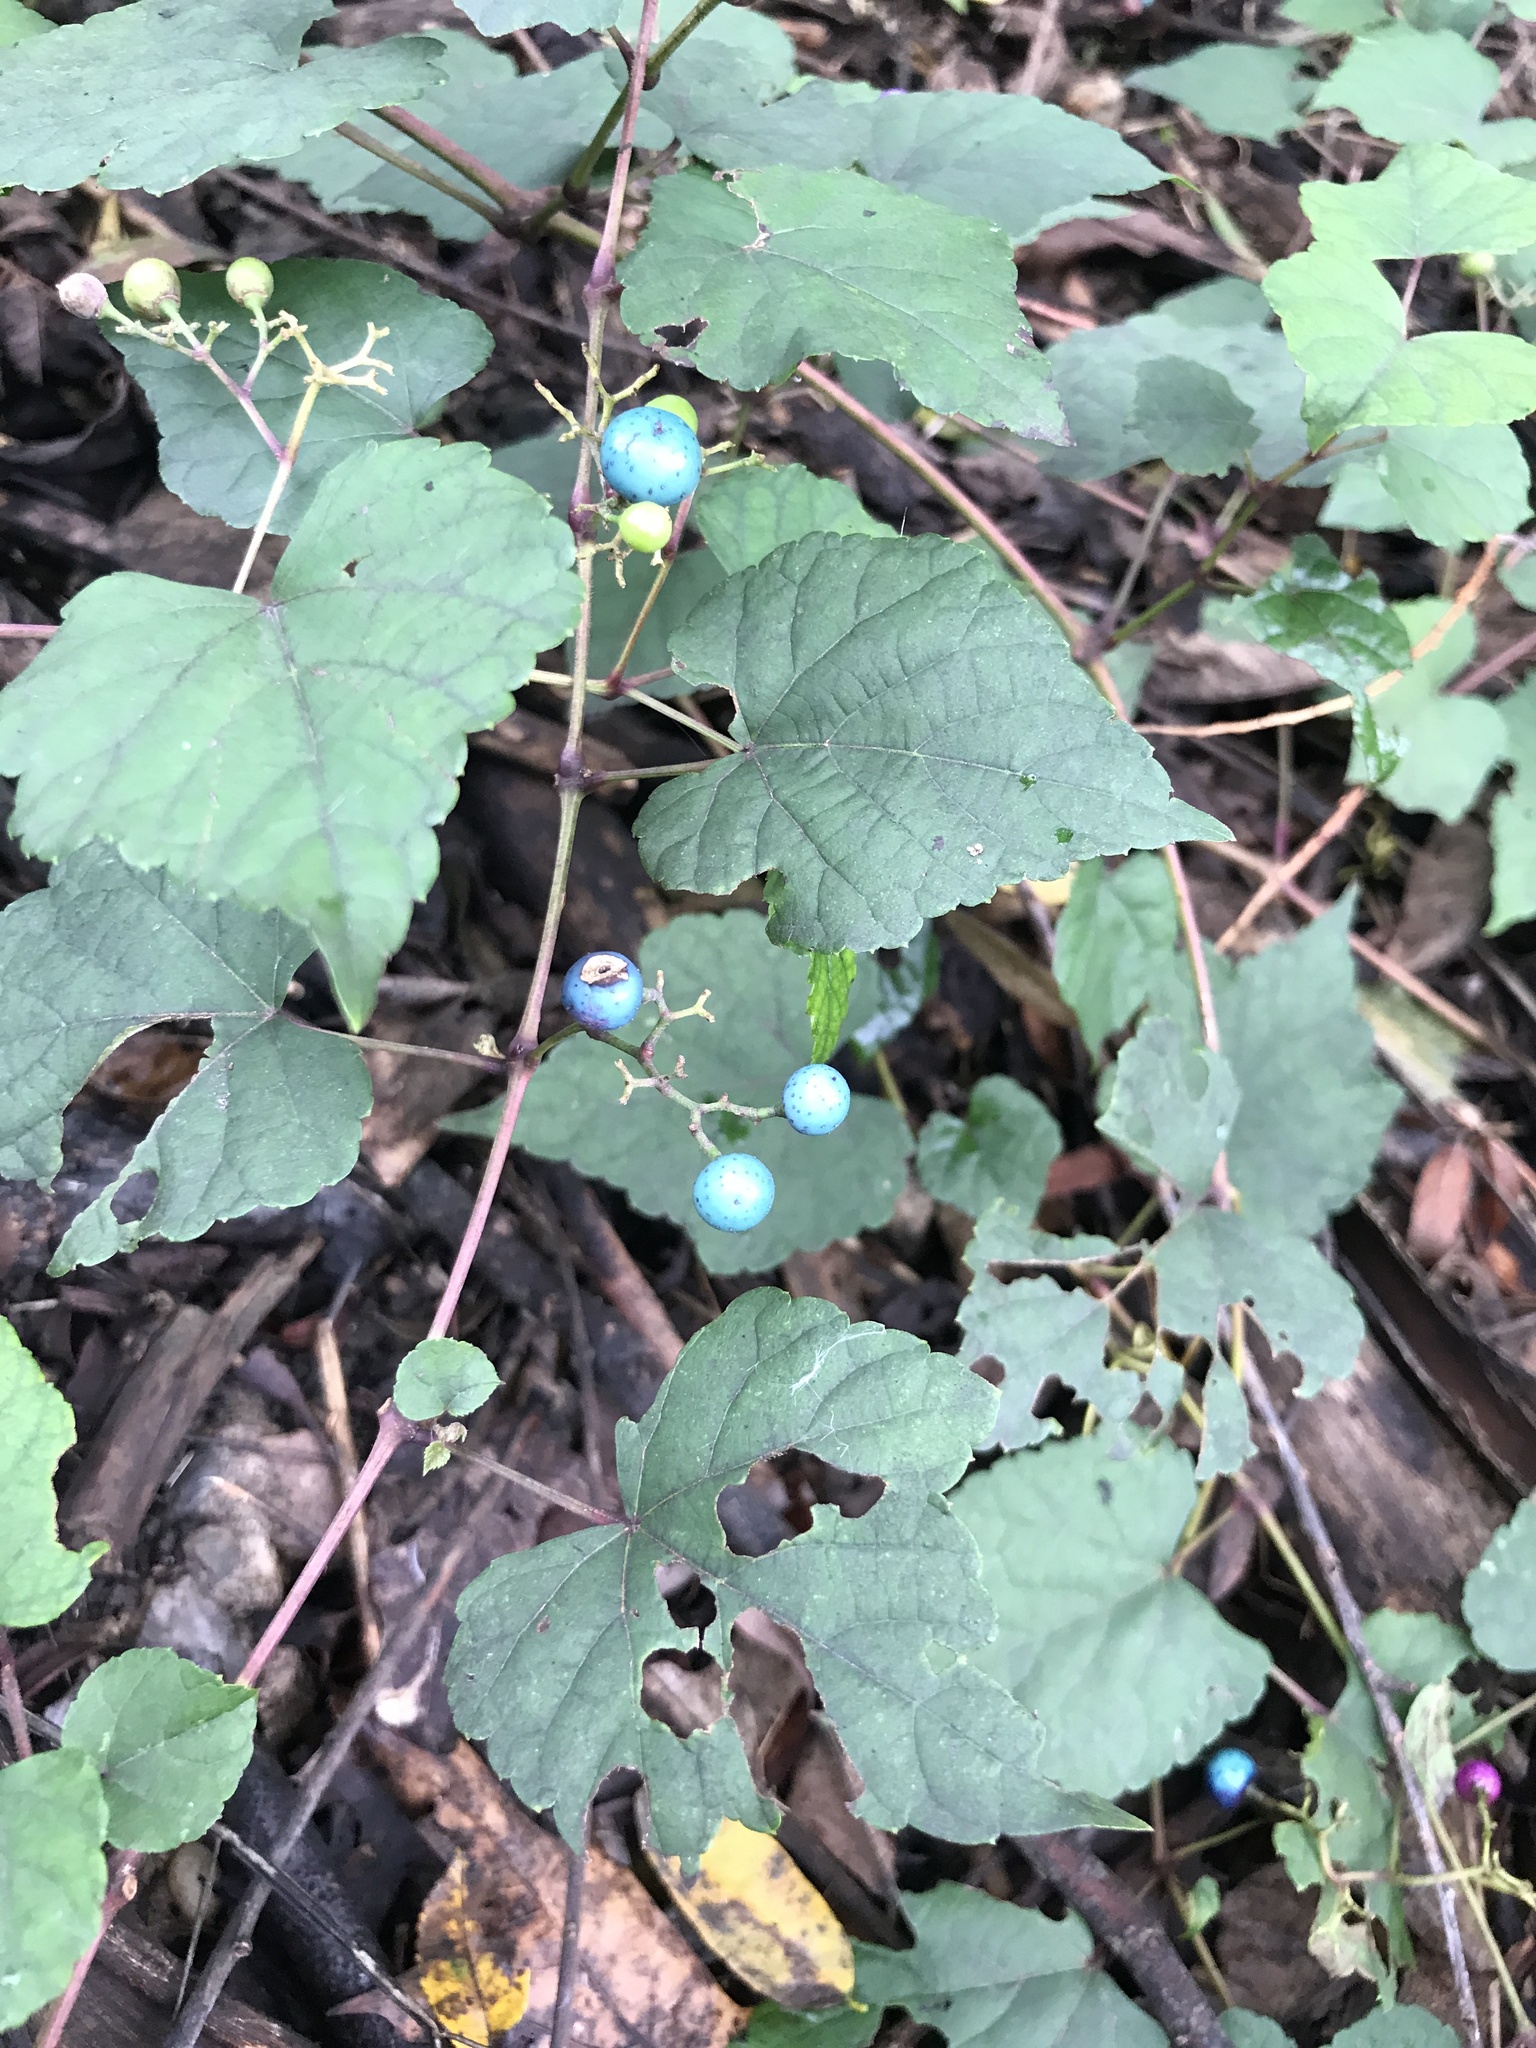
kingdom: Plantae
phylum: Tracheophyta
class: Magnoliopsida
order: Vitales
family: Vitaceae
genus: Ampelopsis
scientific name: Ampelopsis glandulosa
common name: Amur peppervine
